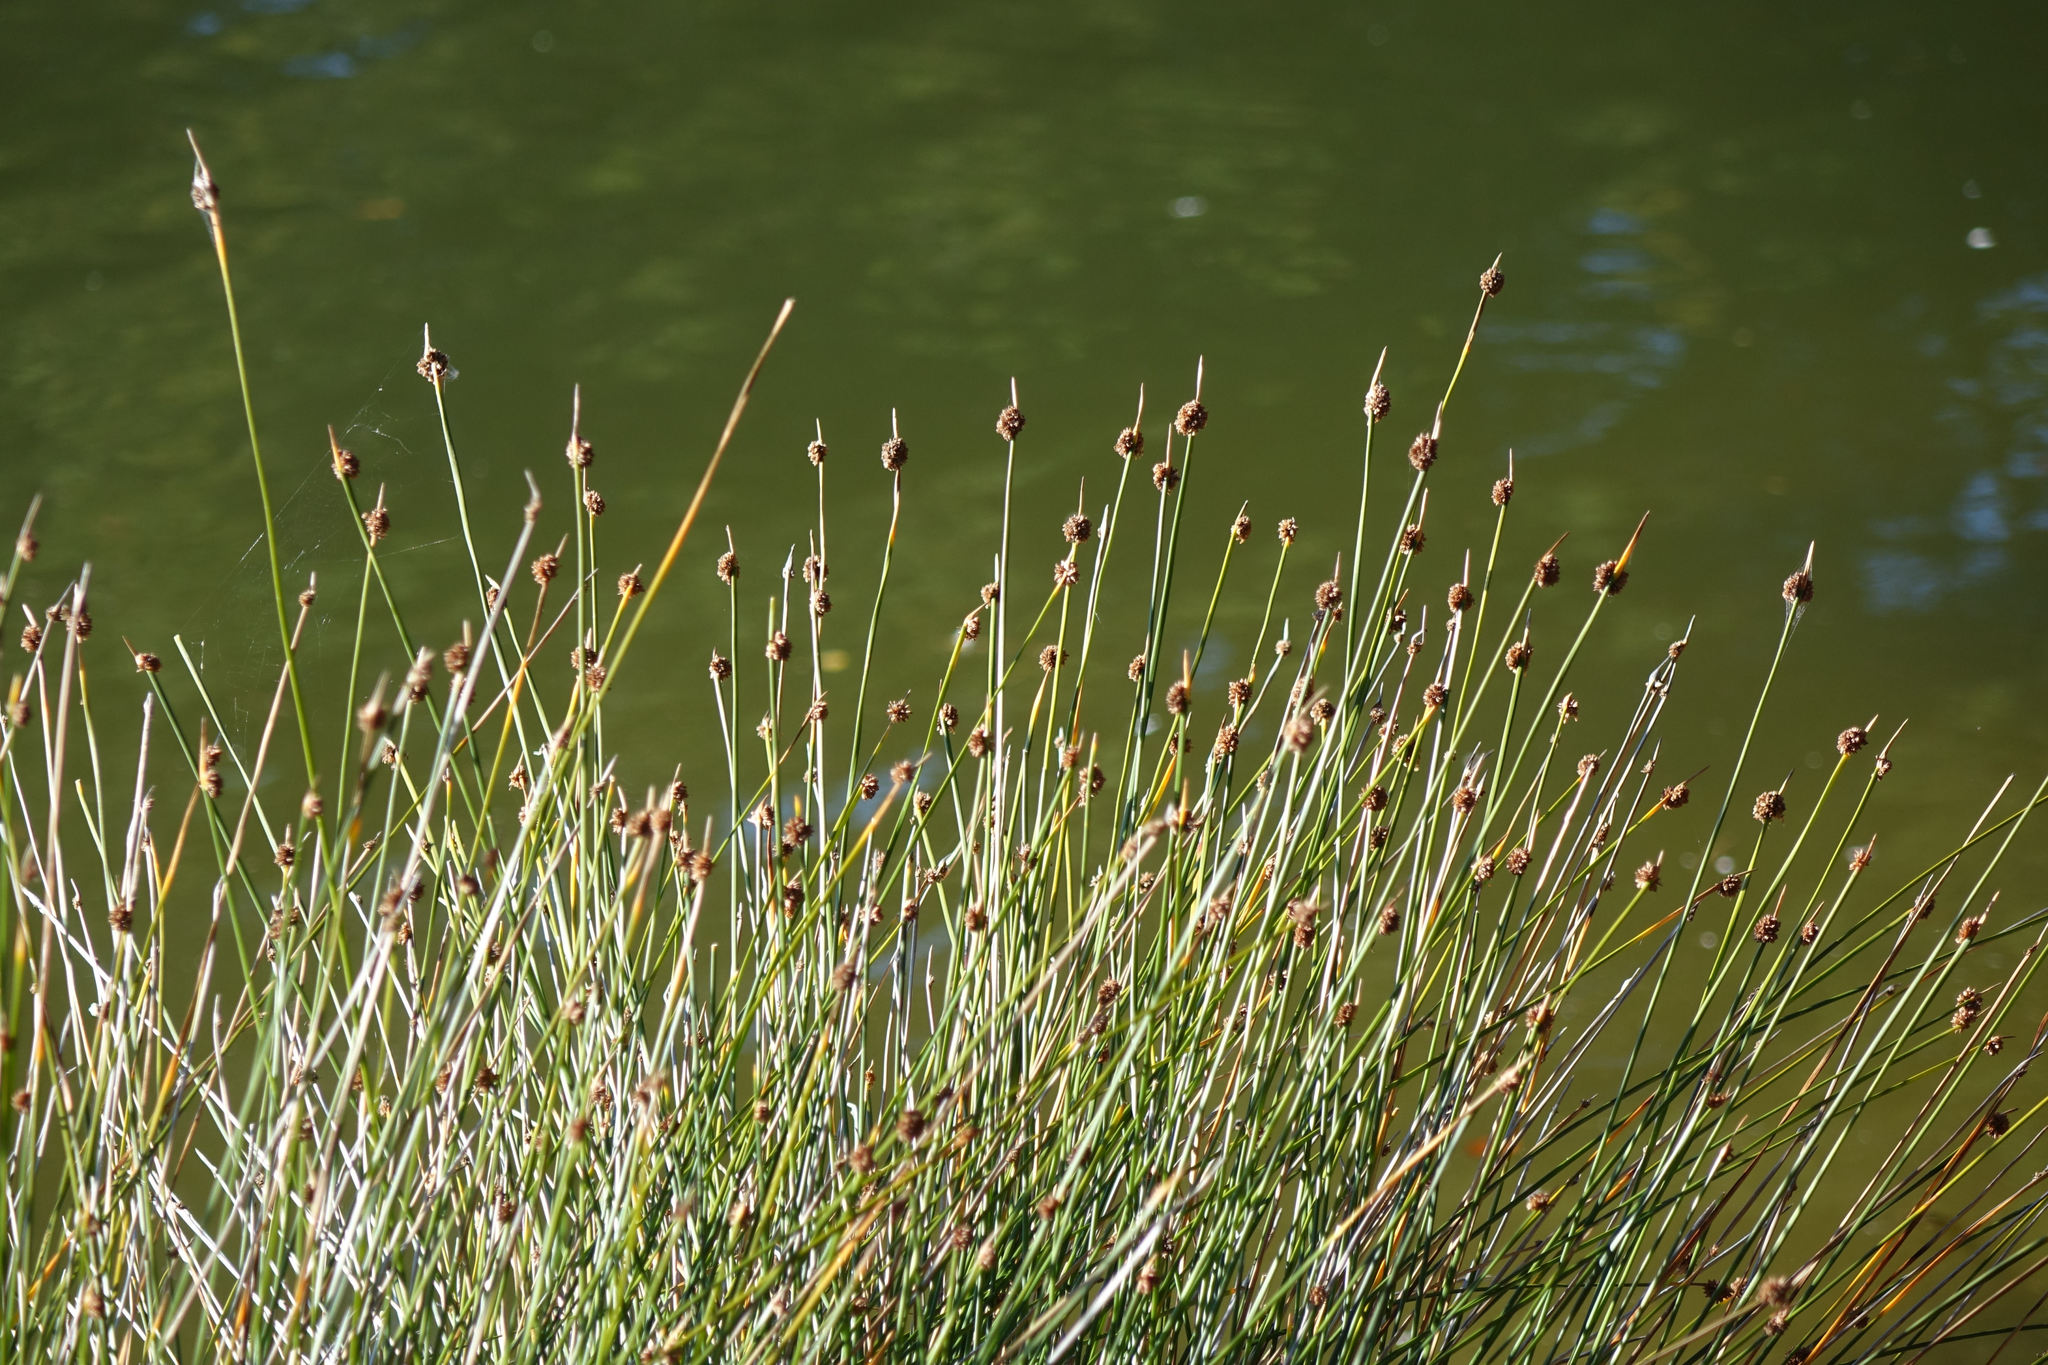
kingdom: Plantae
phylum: Tracheophyta
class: Liliopsida
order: Poales
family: Cyperaceae
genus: Ficinia
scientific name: Ficinia nodosa
